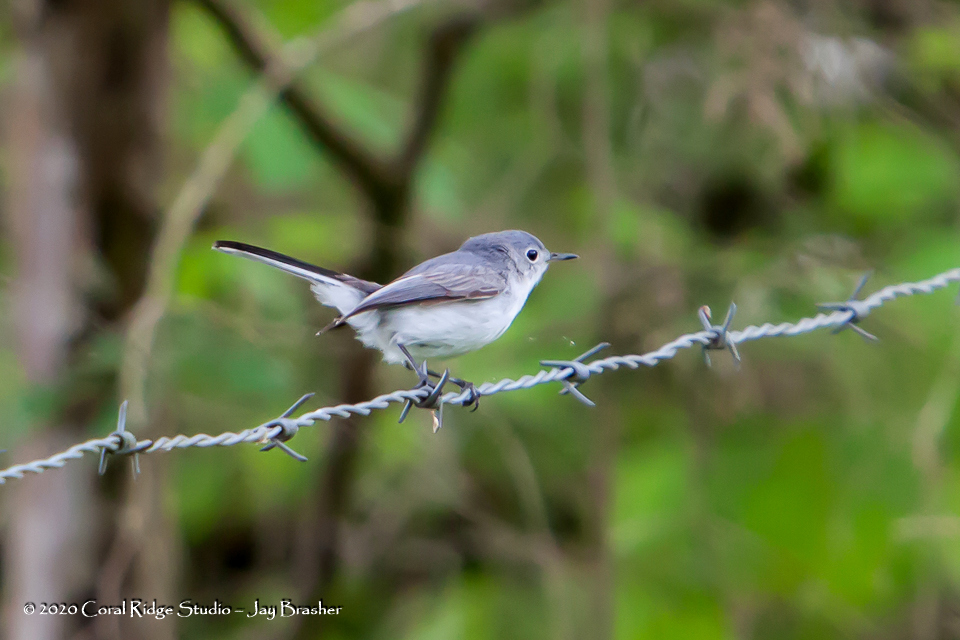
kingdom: Animalia
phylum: Chordata
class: Aves
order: Passeriformes
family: Polioptilidae
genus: Polioptila
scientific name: Polioptila caerulea
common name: Blue-gray gnatcatcher
